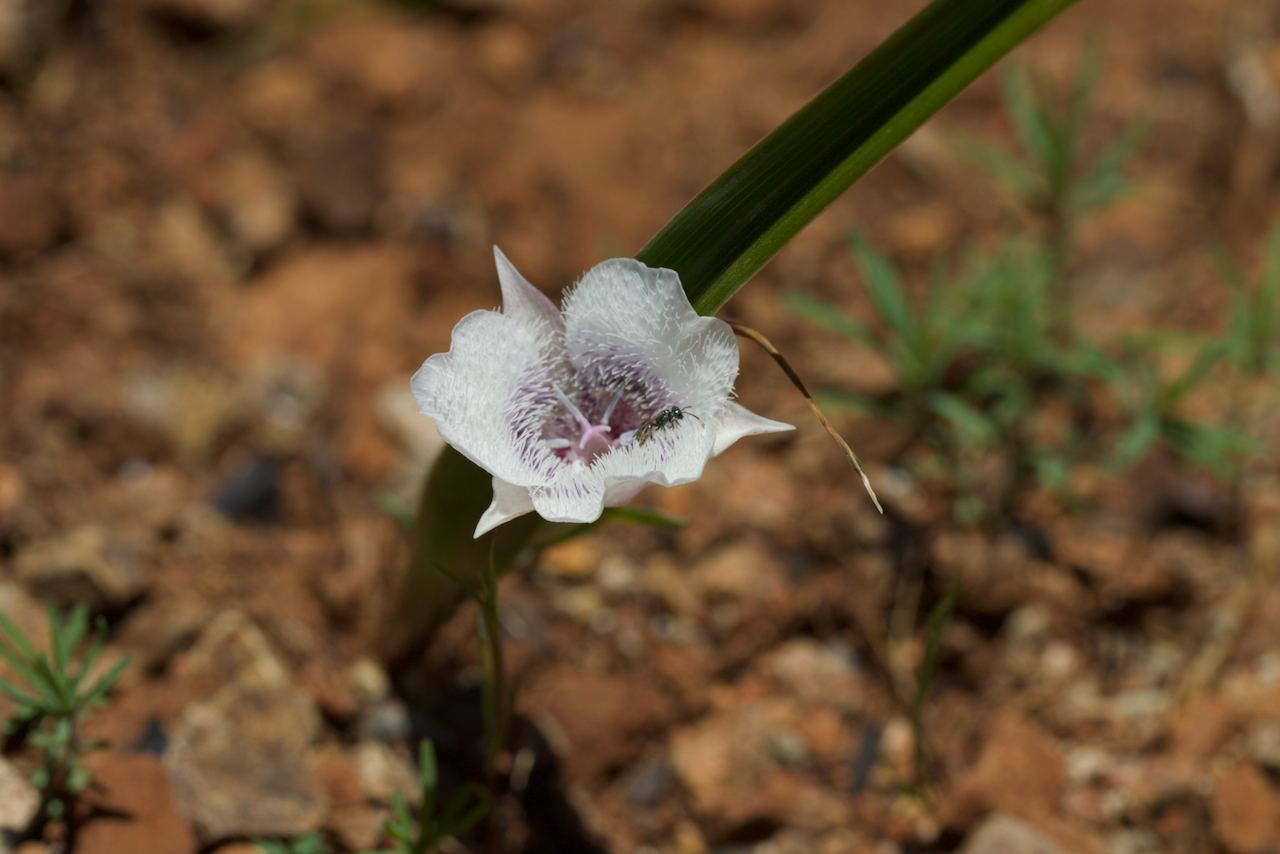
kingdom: Plantae
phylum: Tracheophyta
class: Liliopsida
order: Liliales
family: Liliaceae
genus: Calochortus
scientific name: Calochortus tolmiei
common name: Pussy-ears
